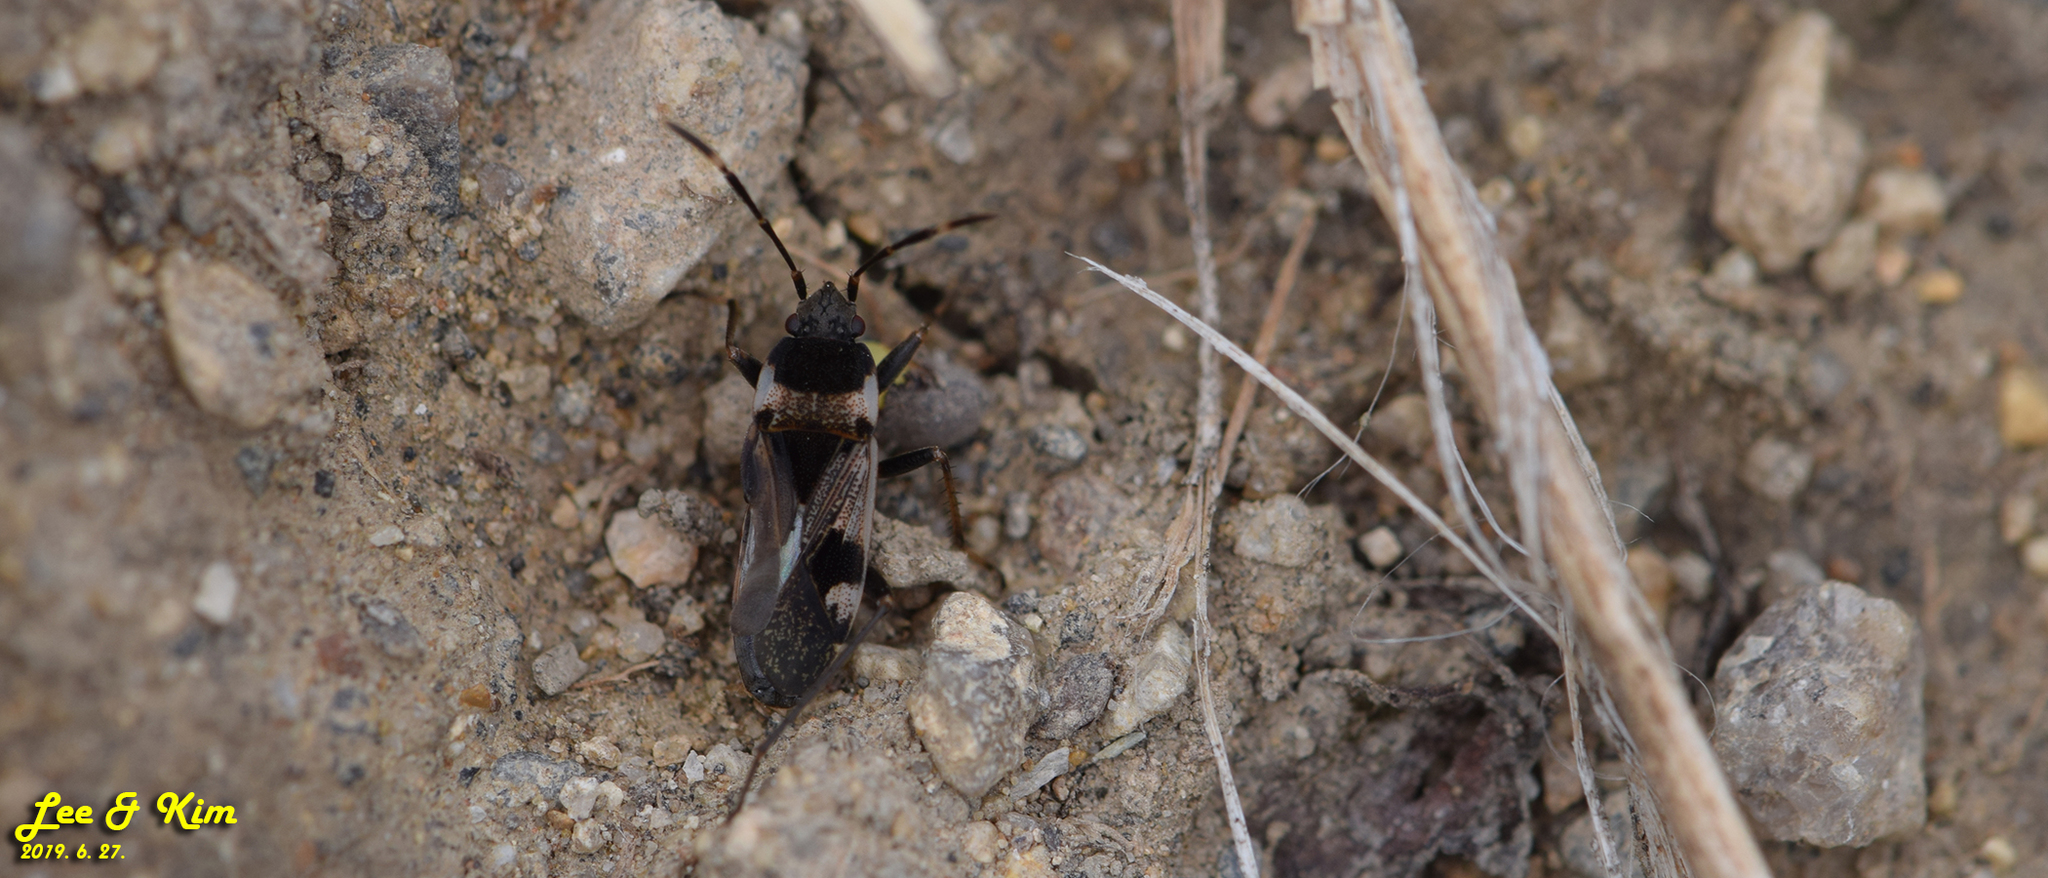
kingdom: Animalia
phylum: Arthropoda
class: Insecta
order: Hemiptera
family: Rhyparochromidae
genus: Panaorus
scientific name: Panaorus albomaculatus
